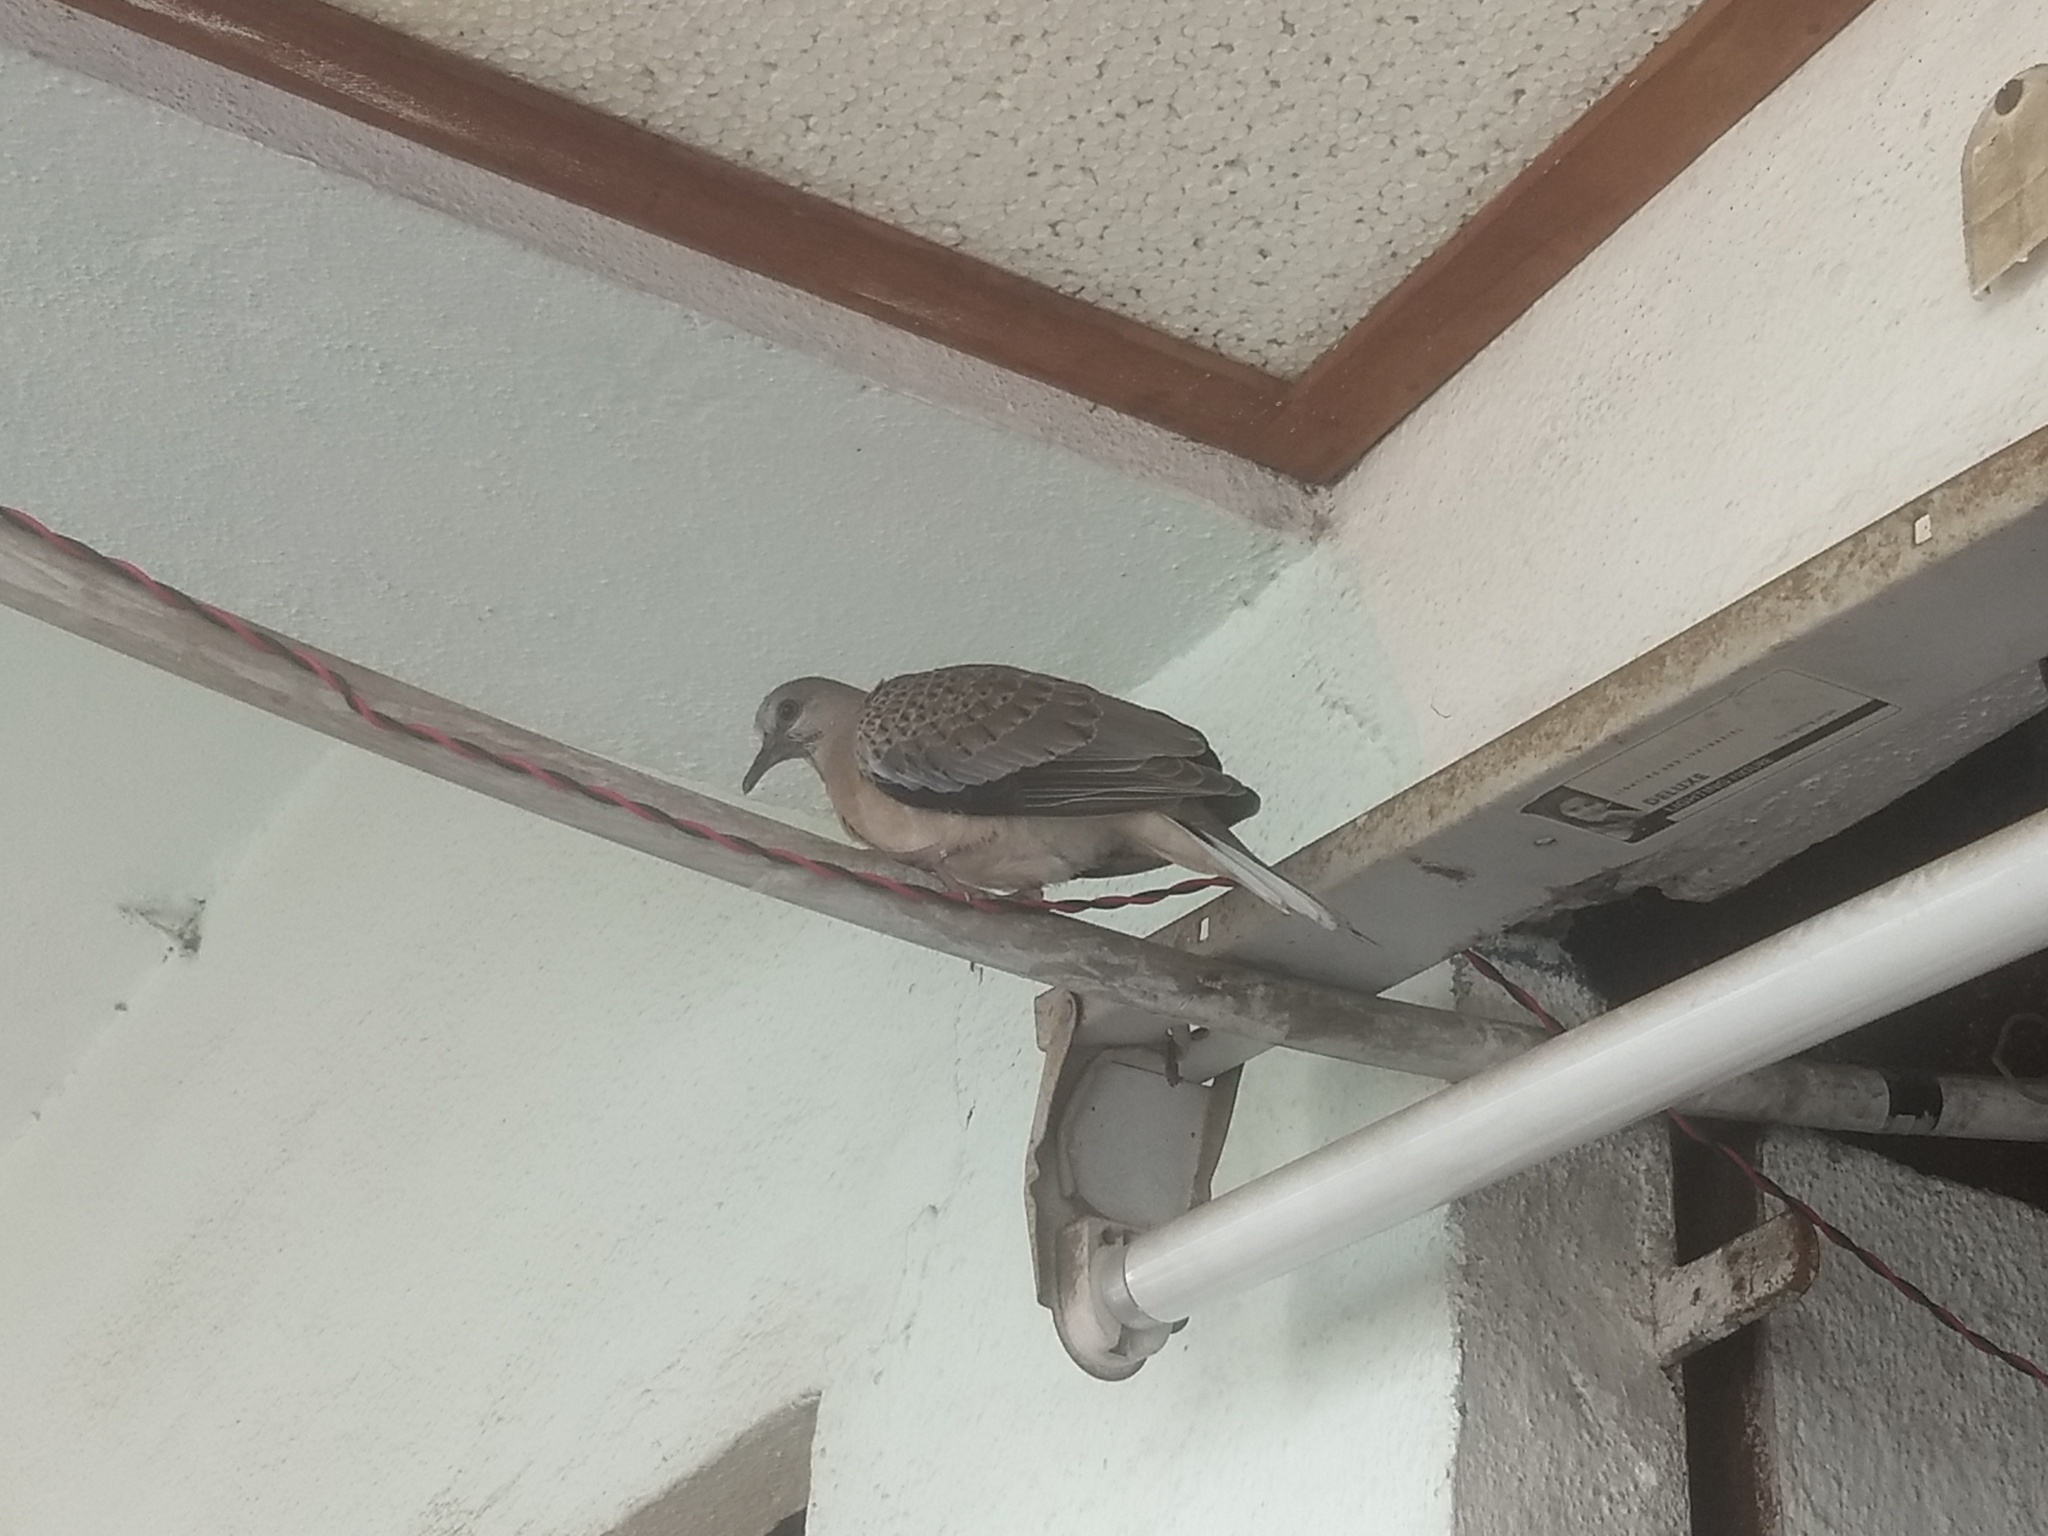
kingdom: Animalia
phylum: Chordata
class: Aves
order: Columbiformes
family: Columbidae
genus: Spilopelia
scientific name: Spilopelia chinensis
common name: Spotted dove
